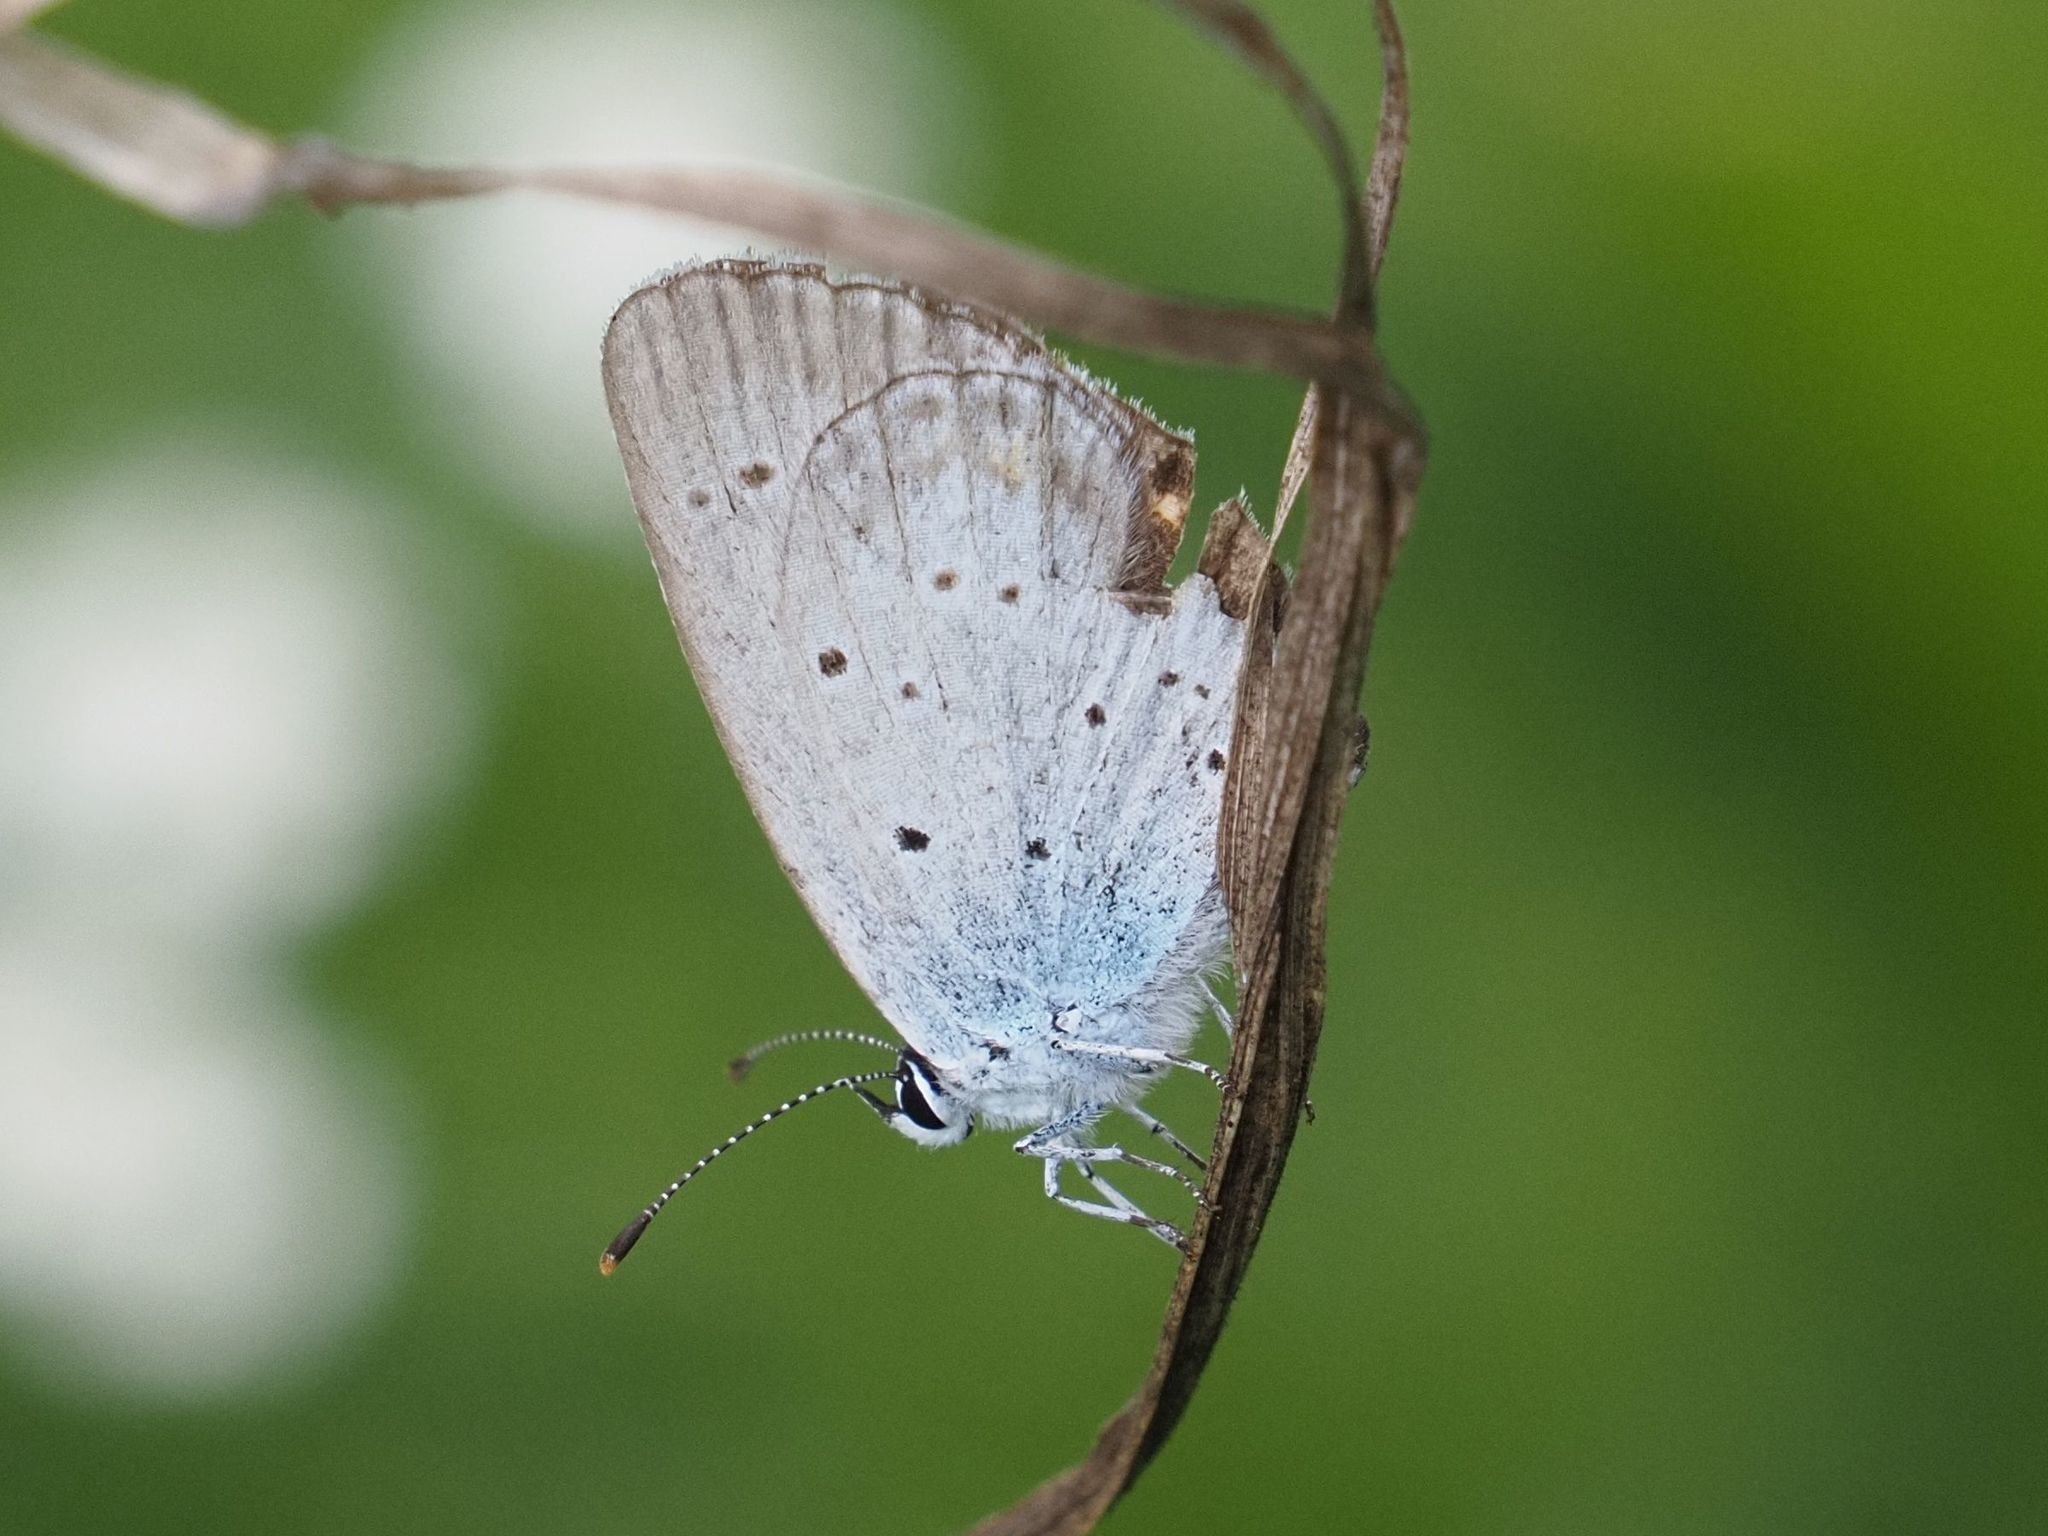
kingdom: Animalia
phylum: Arthropoda
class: Insecta
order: Lepidoptera
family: Lycaenidae
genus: Elkalyce
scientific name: Elkalyce argiades
